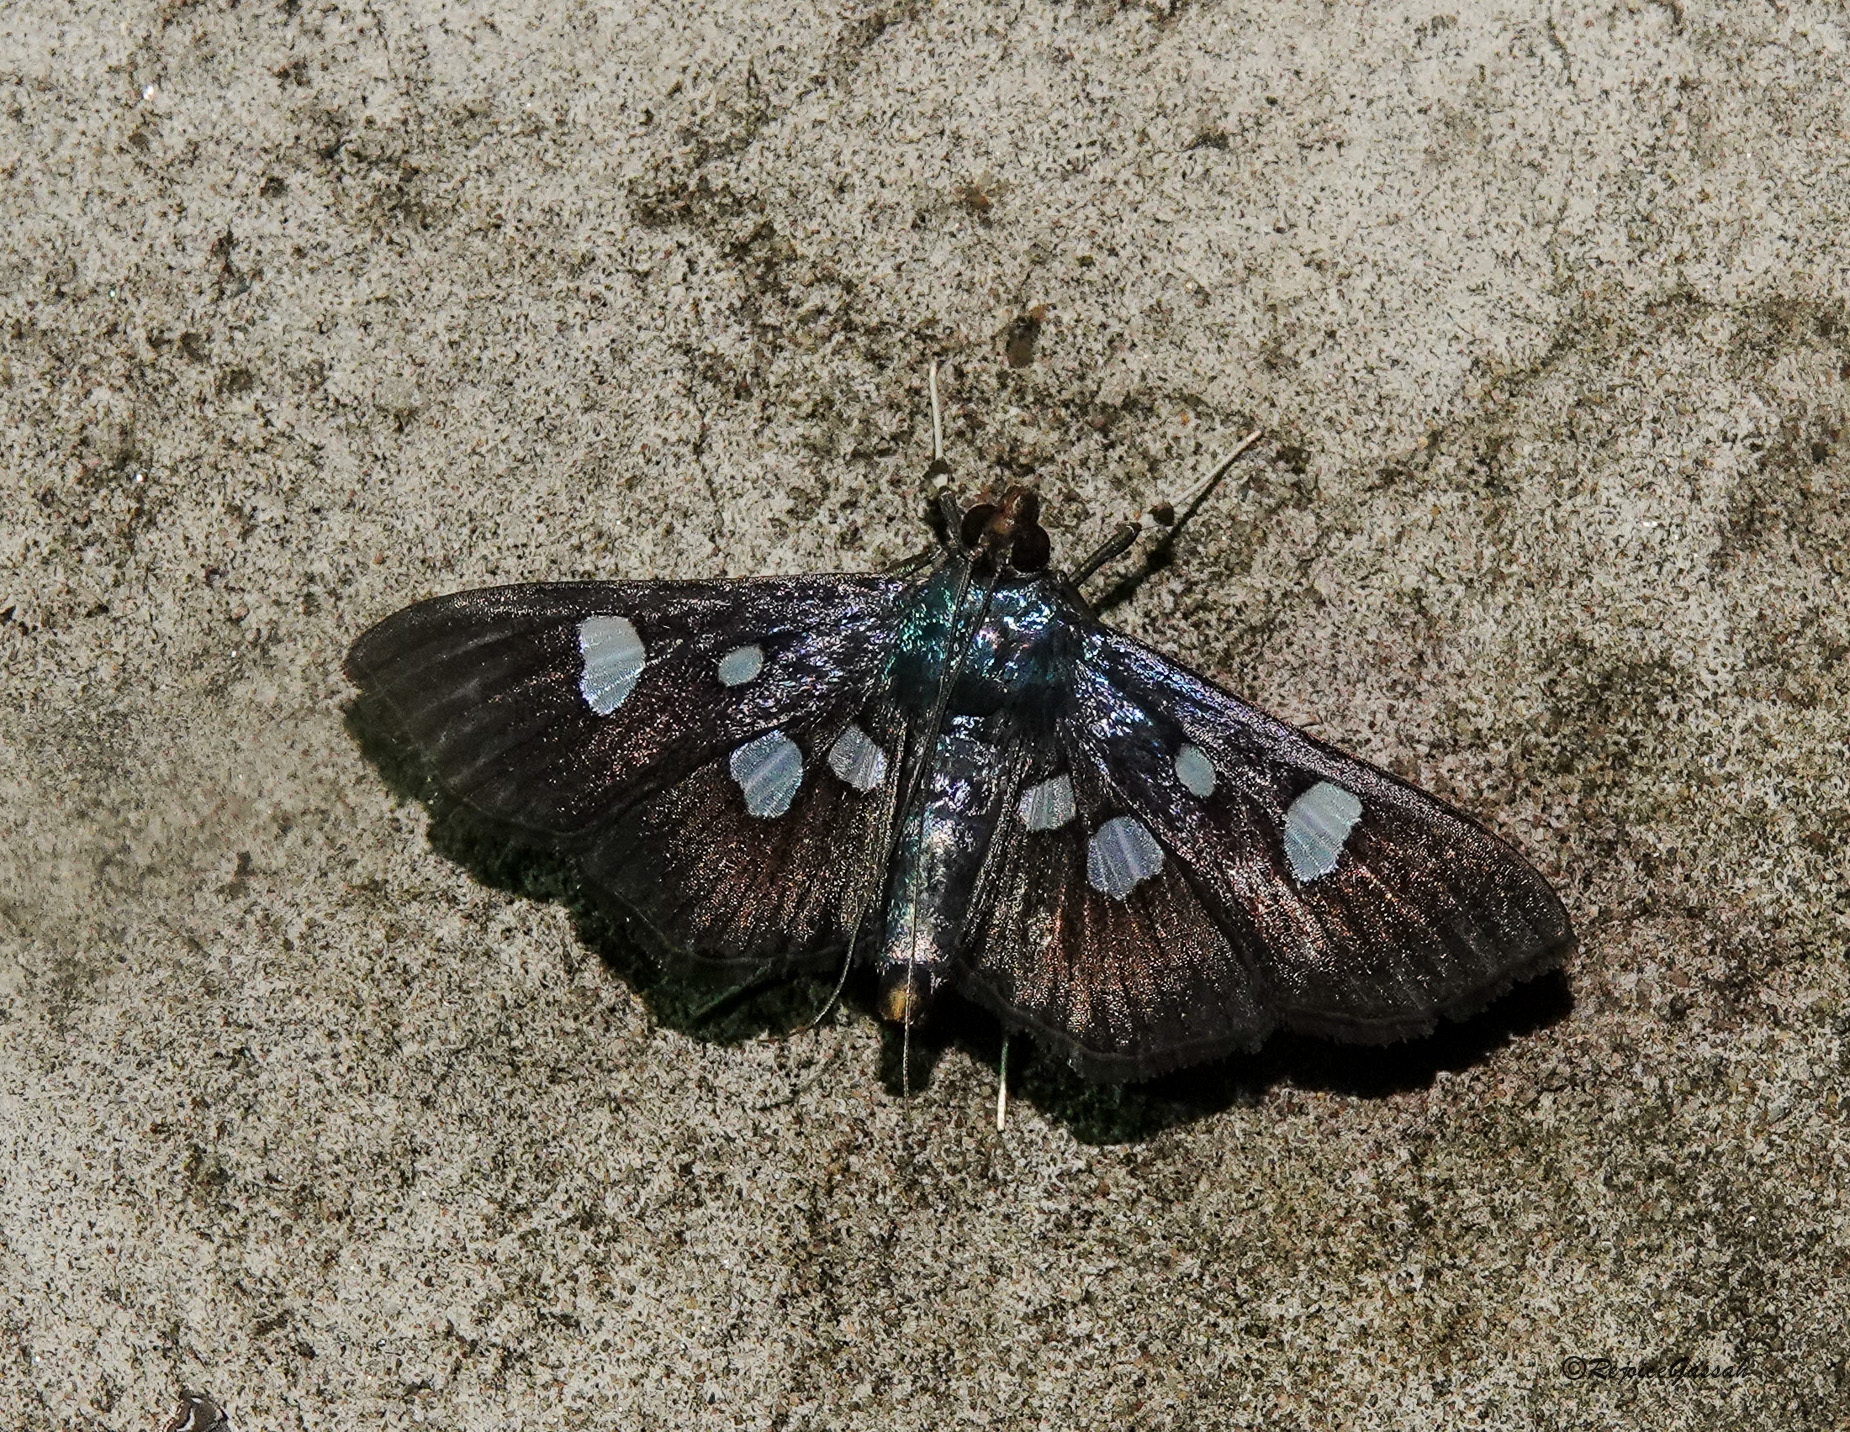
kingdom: Animalia
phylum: Arthropoda
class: Insecta
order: Lepidoptera
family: Crambidae
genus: Pygospila
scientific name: Pygospila
